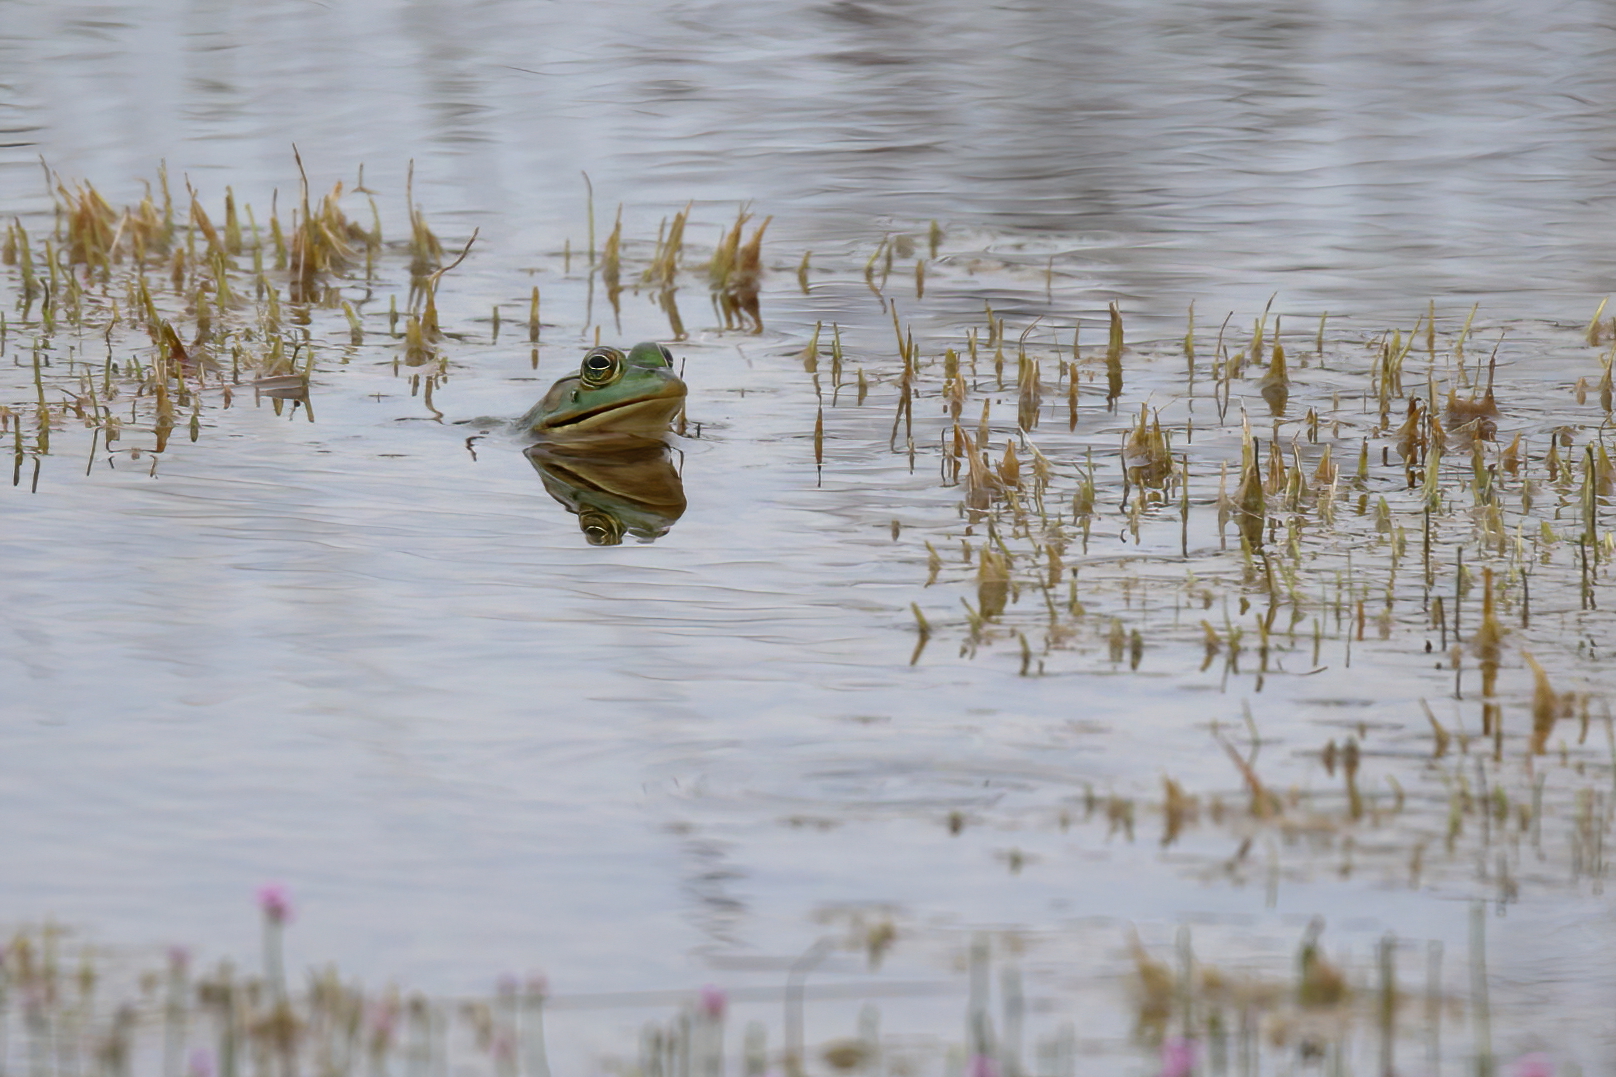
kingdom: Animalia
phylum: Chordata
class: Amphibia
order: Anura
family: Ranidae
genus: Lithobates
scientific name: Lithobates catesbeianus
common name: American bullfrog
